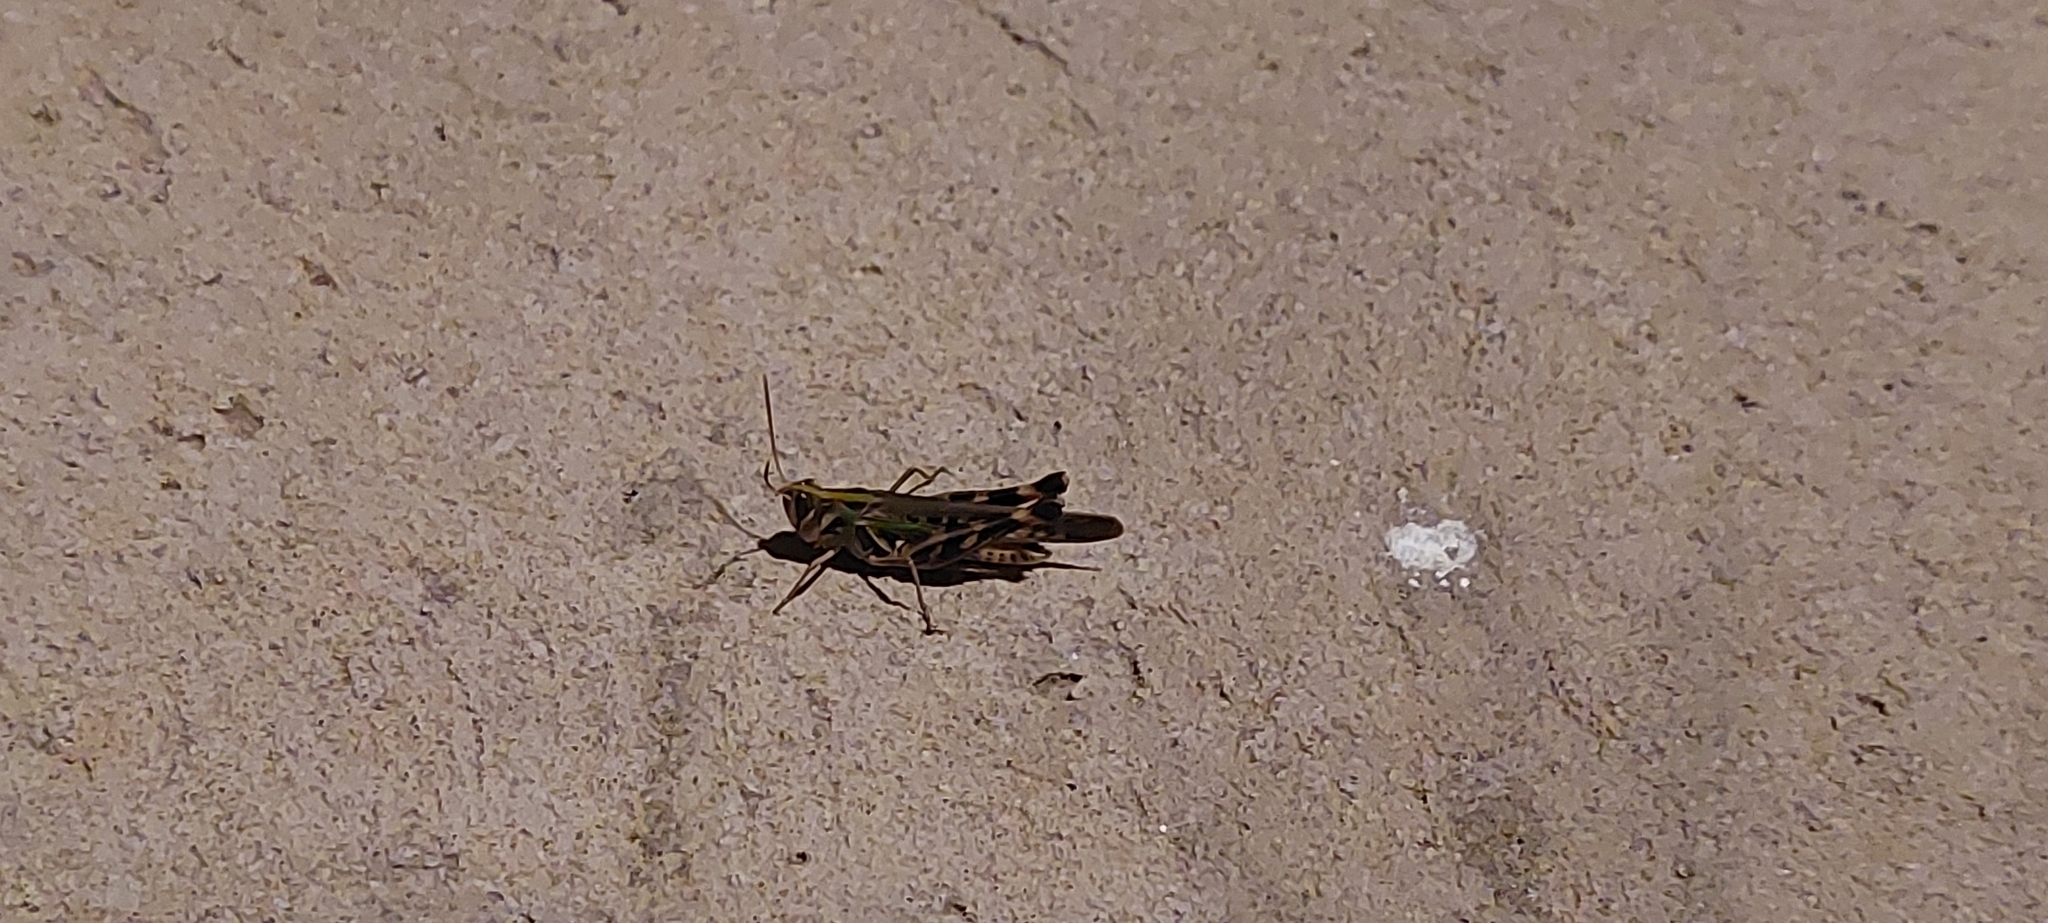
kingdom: Animalia
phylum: Arthropoda
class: Insecta
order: Orthoptera
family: Acrididae
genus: Rhammatocerus
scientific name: Rhammatocerus pictus
